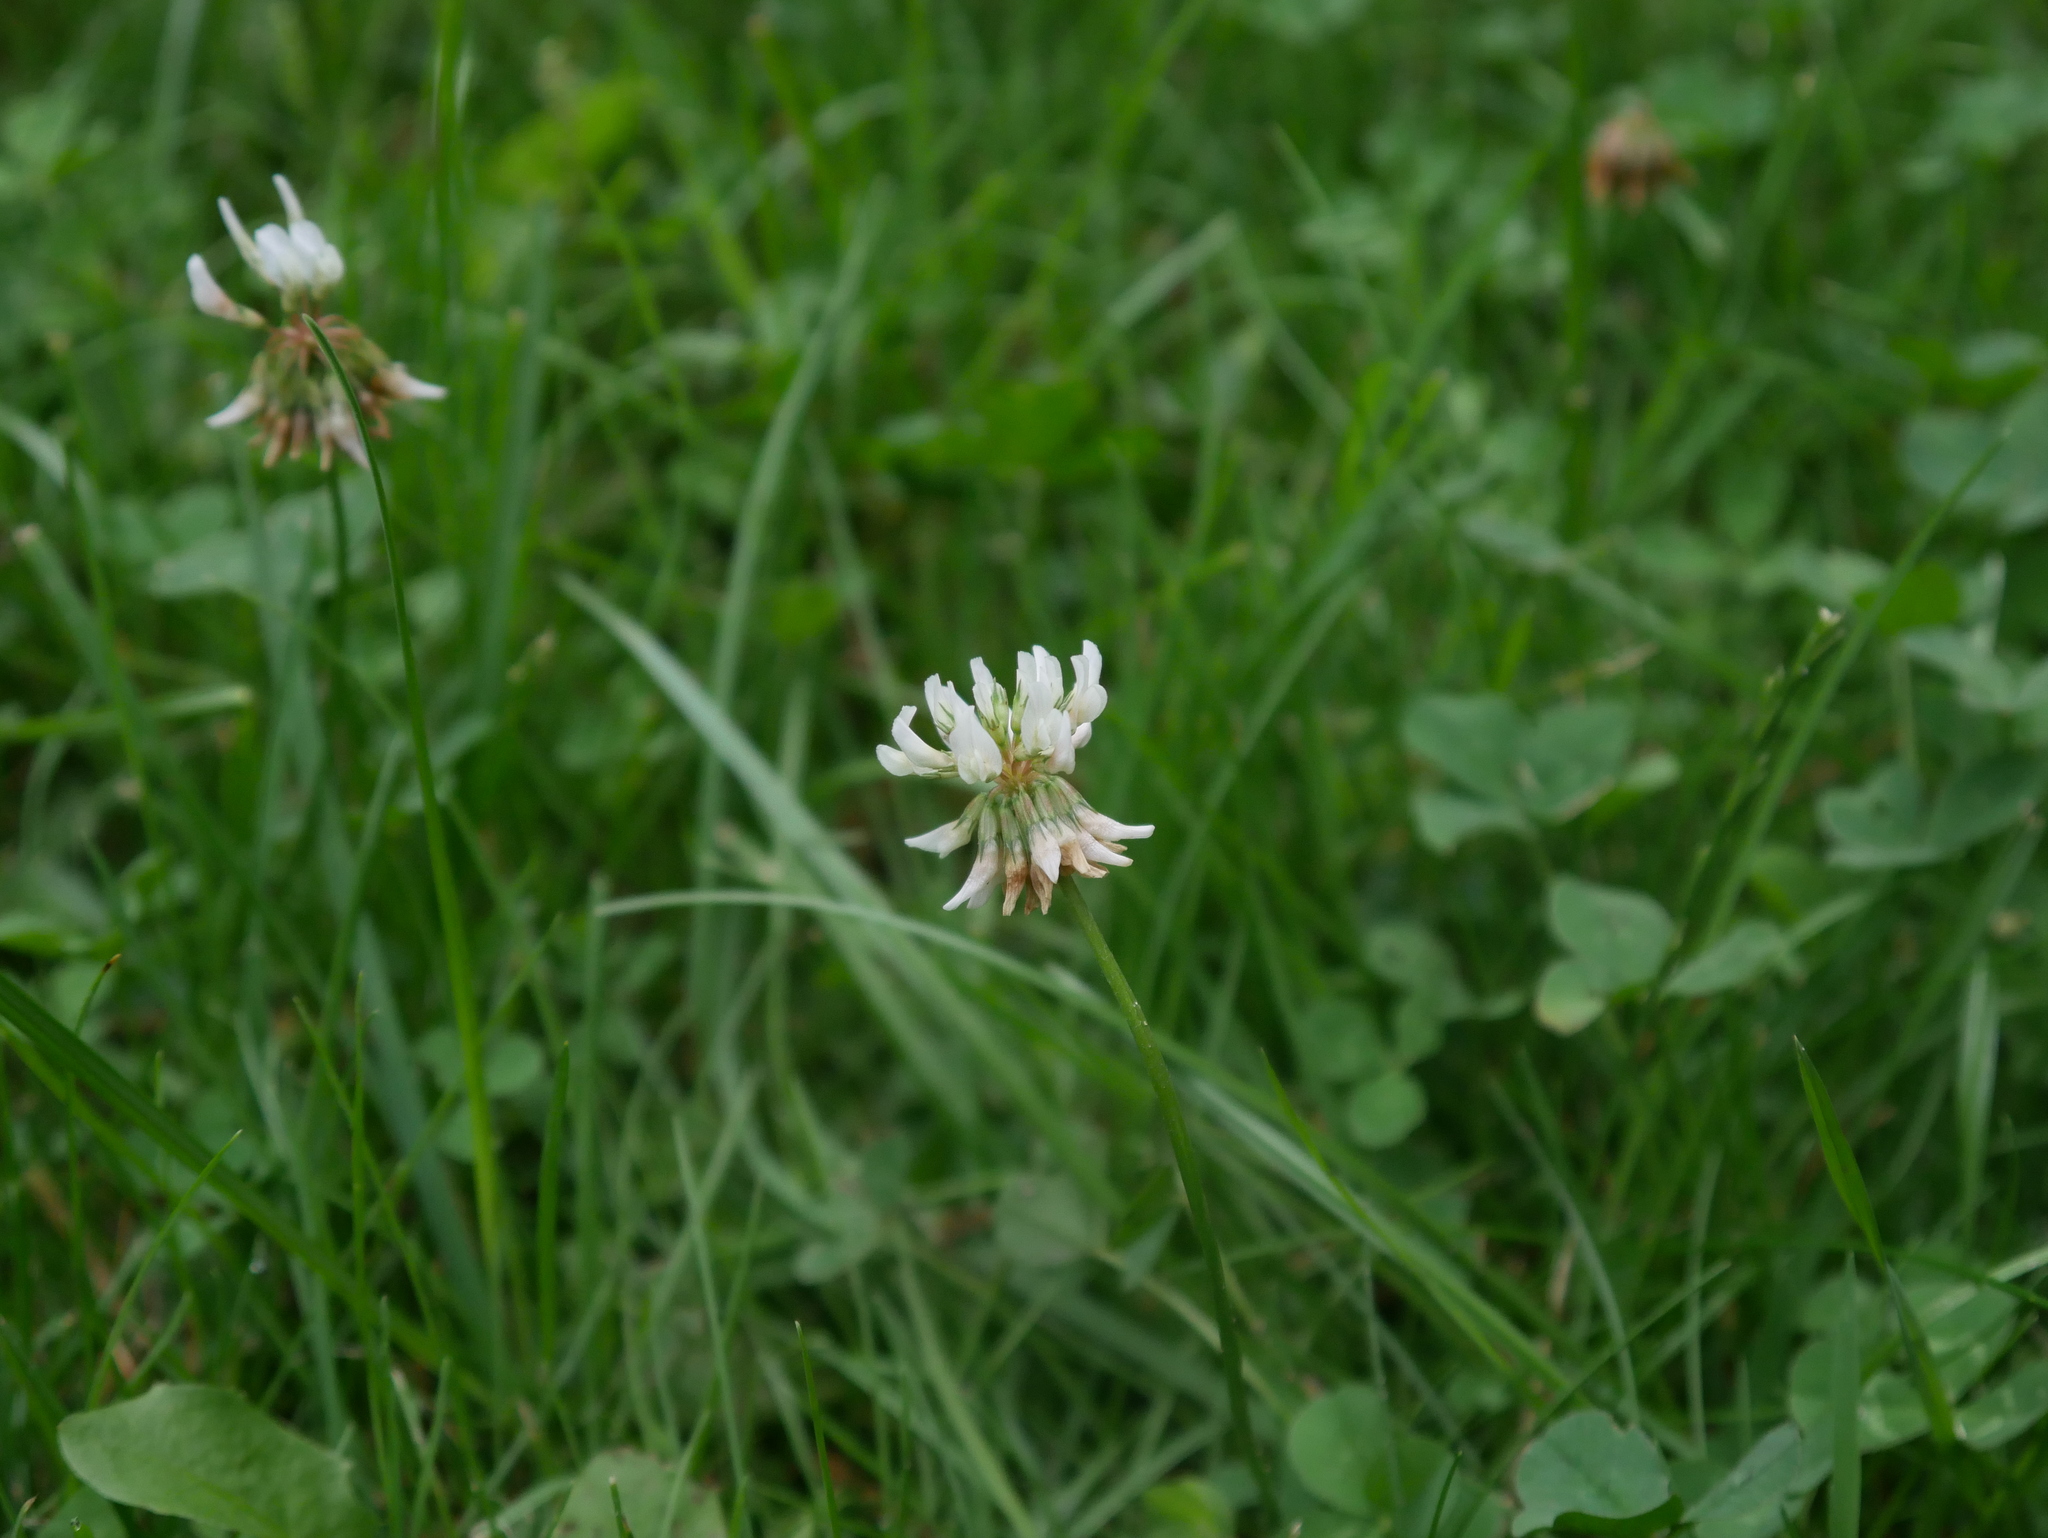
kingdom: Plantae
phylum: Tracheophyta
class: Magnoliopsida
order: Fabales
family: Fabaceae
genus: Trifolium
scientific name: Trifolium repens
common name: White clover
